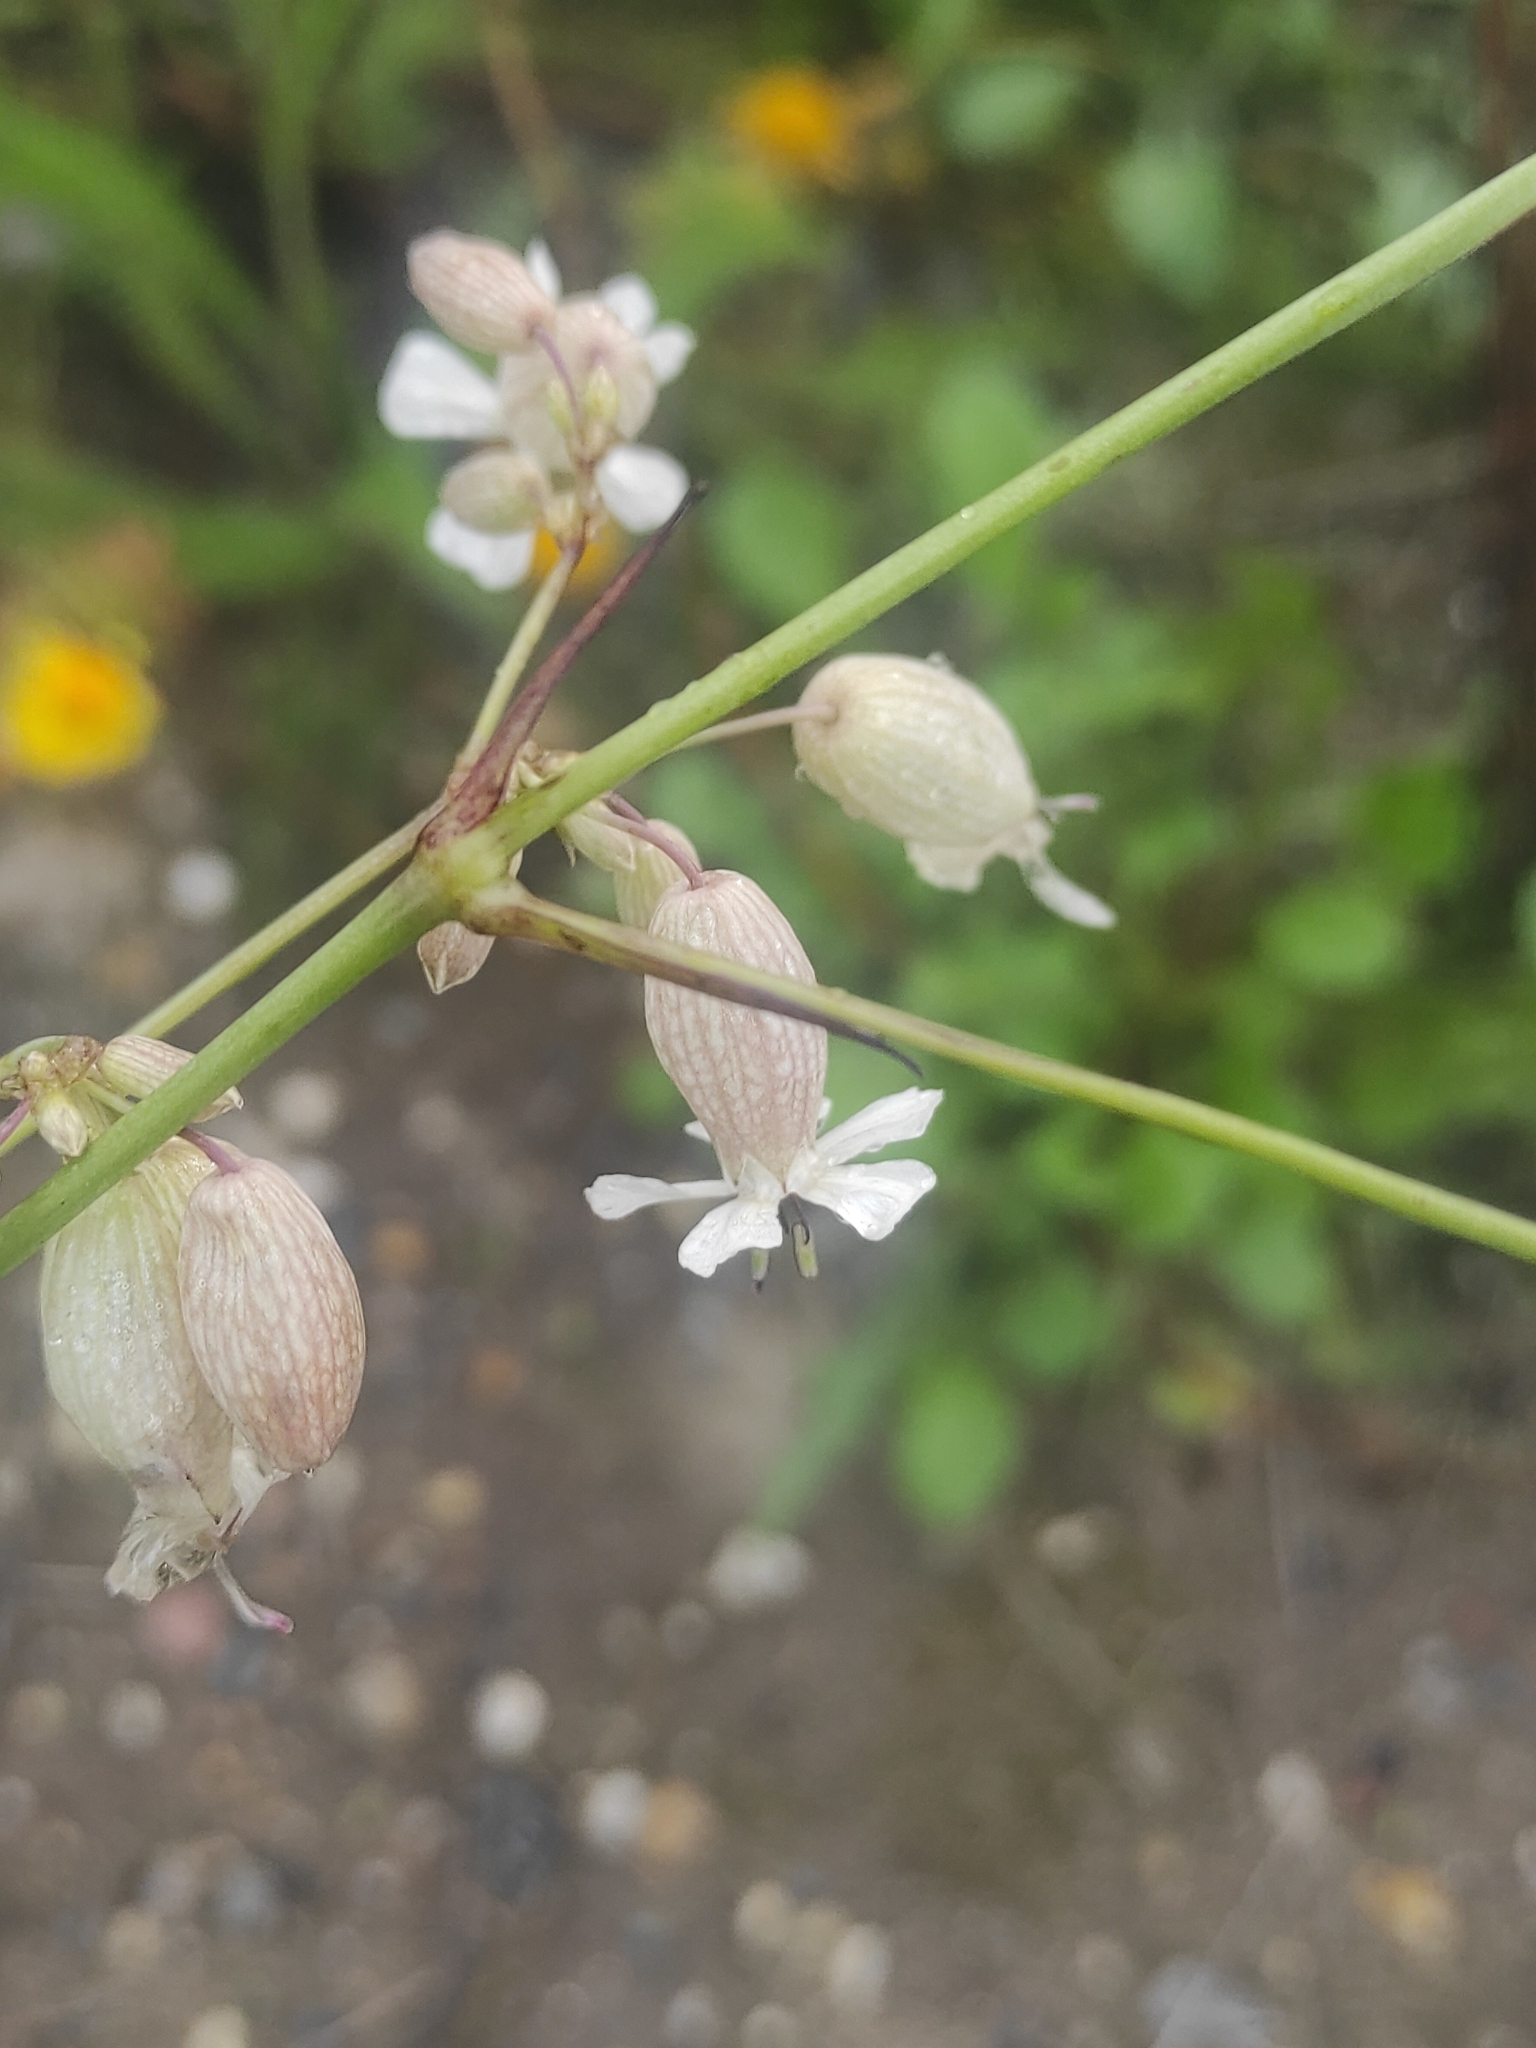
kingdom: Plantae
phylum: Tracheophyta
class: Magnoliopsida
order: Caryophyllales
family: Caryophyllaceae
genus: Silene
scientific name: Silene vulgaris
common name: Bladder campion
